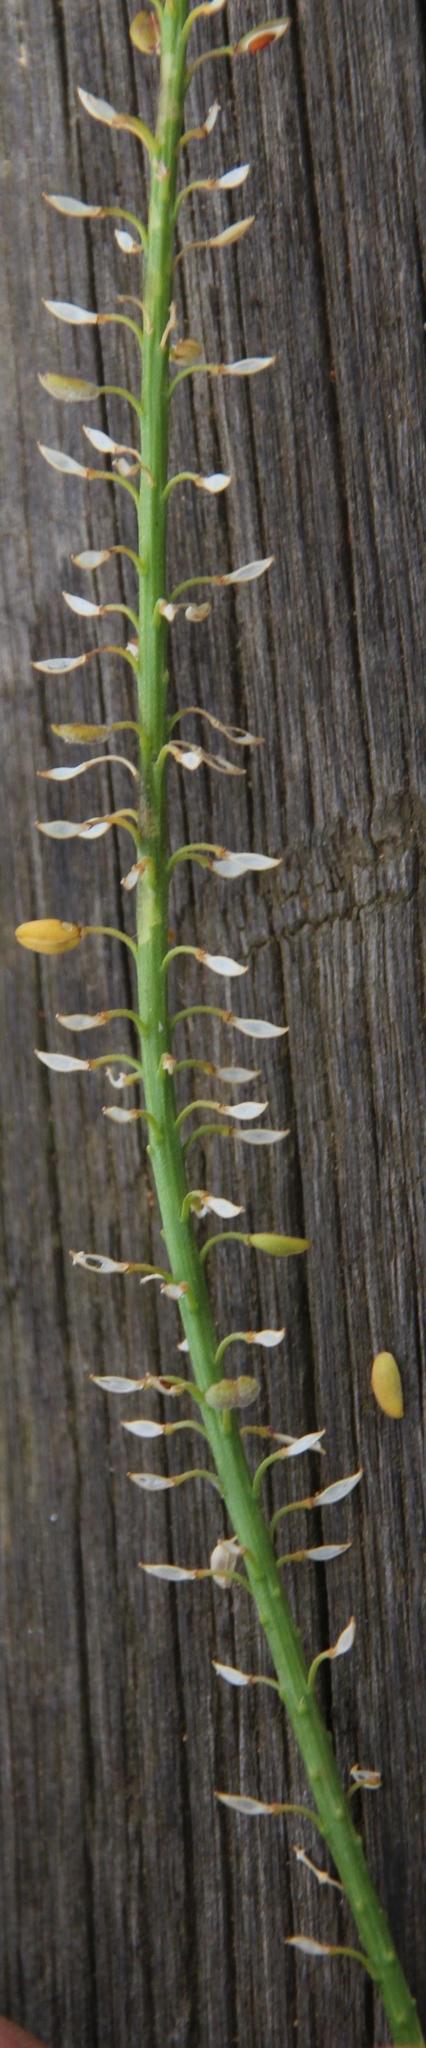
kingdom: Plantae
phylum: Tracheophyta
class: Magnoliopsida
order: Brassicales
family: Brassicaceae
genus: Lepidium
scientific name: Lepidium africanum
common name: African pepperwort
